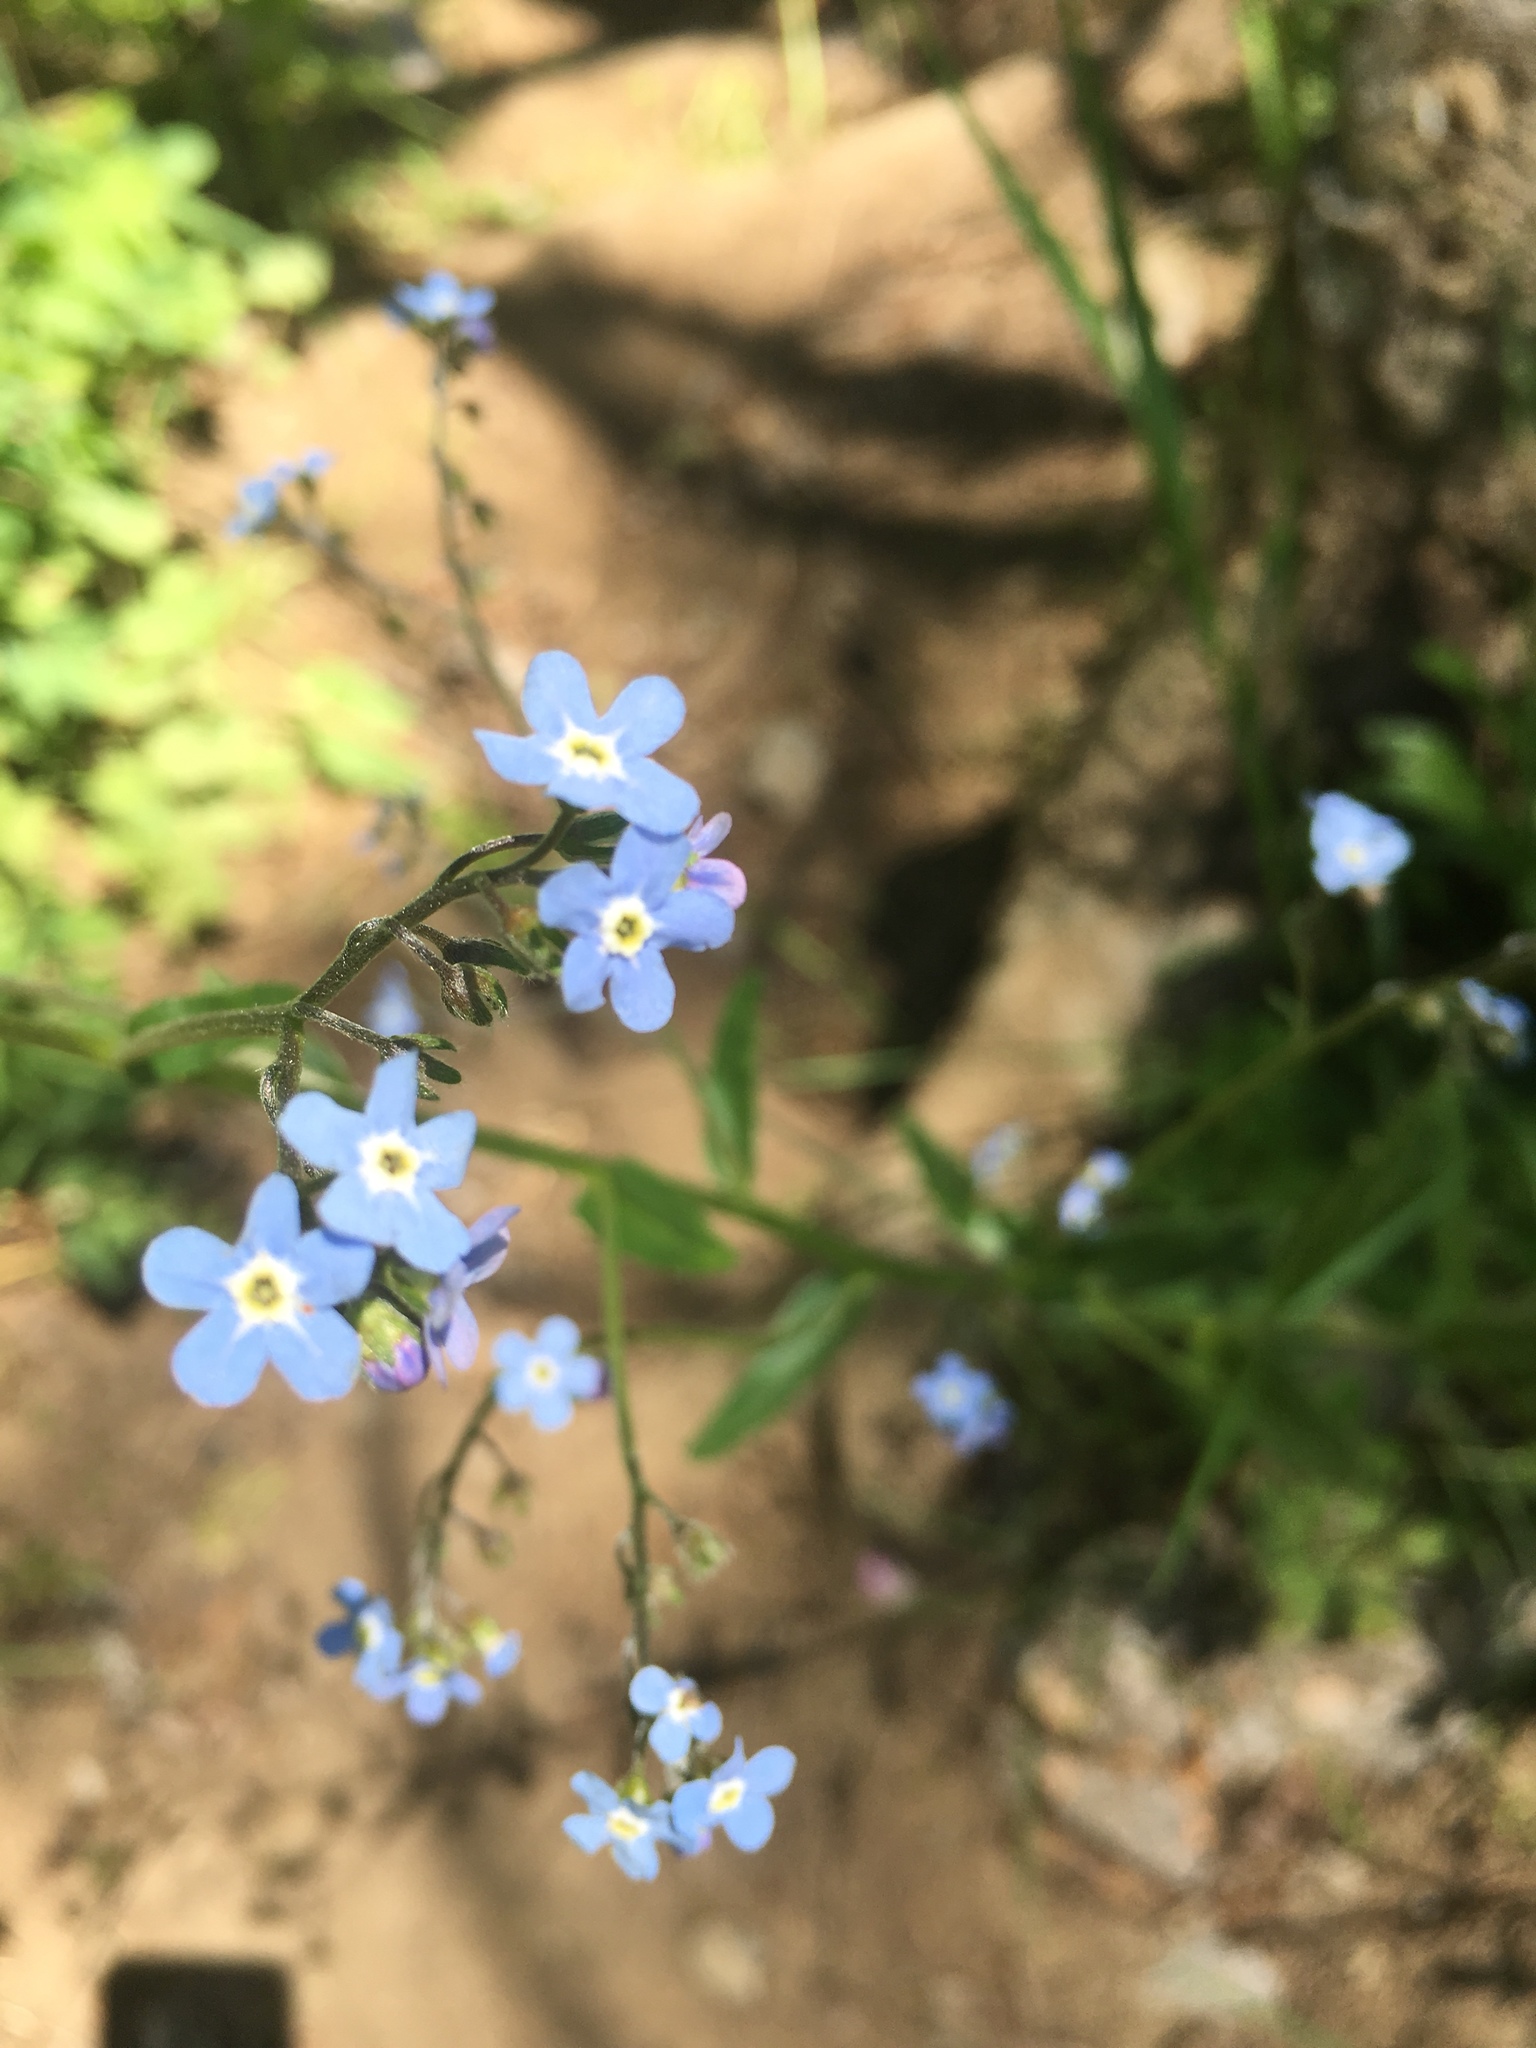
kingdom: Plantae
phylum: Tracheophyta
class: Magnoliopsida
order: Boraginales
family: Boraginaceae
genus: Hackelia
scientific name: Hackelia
